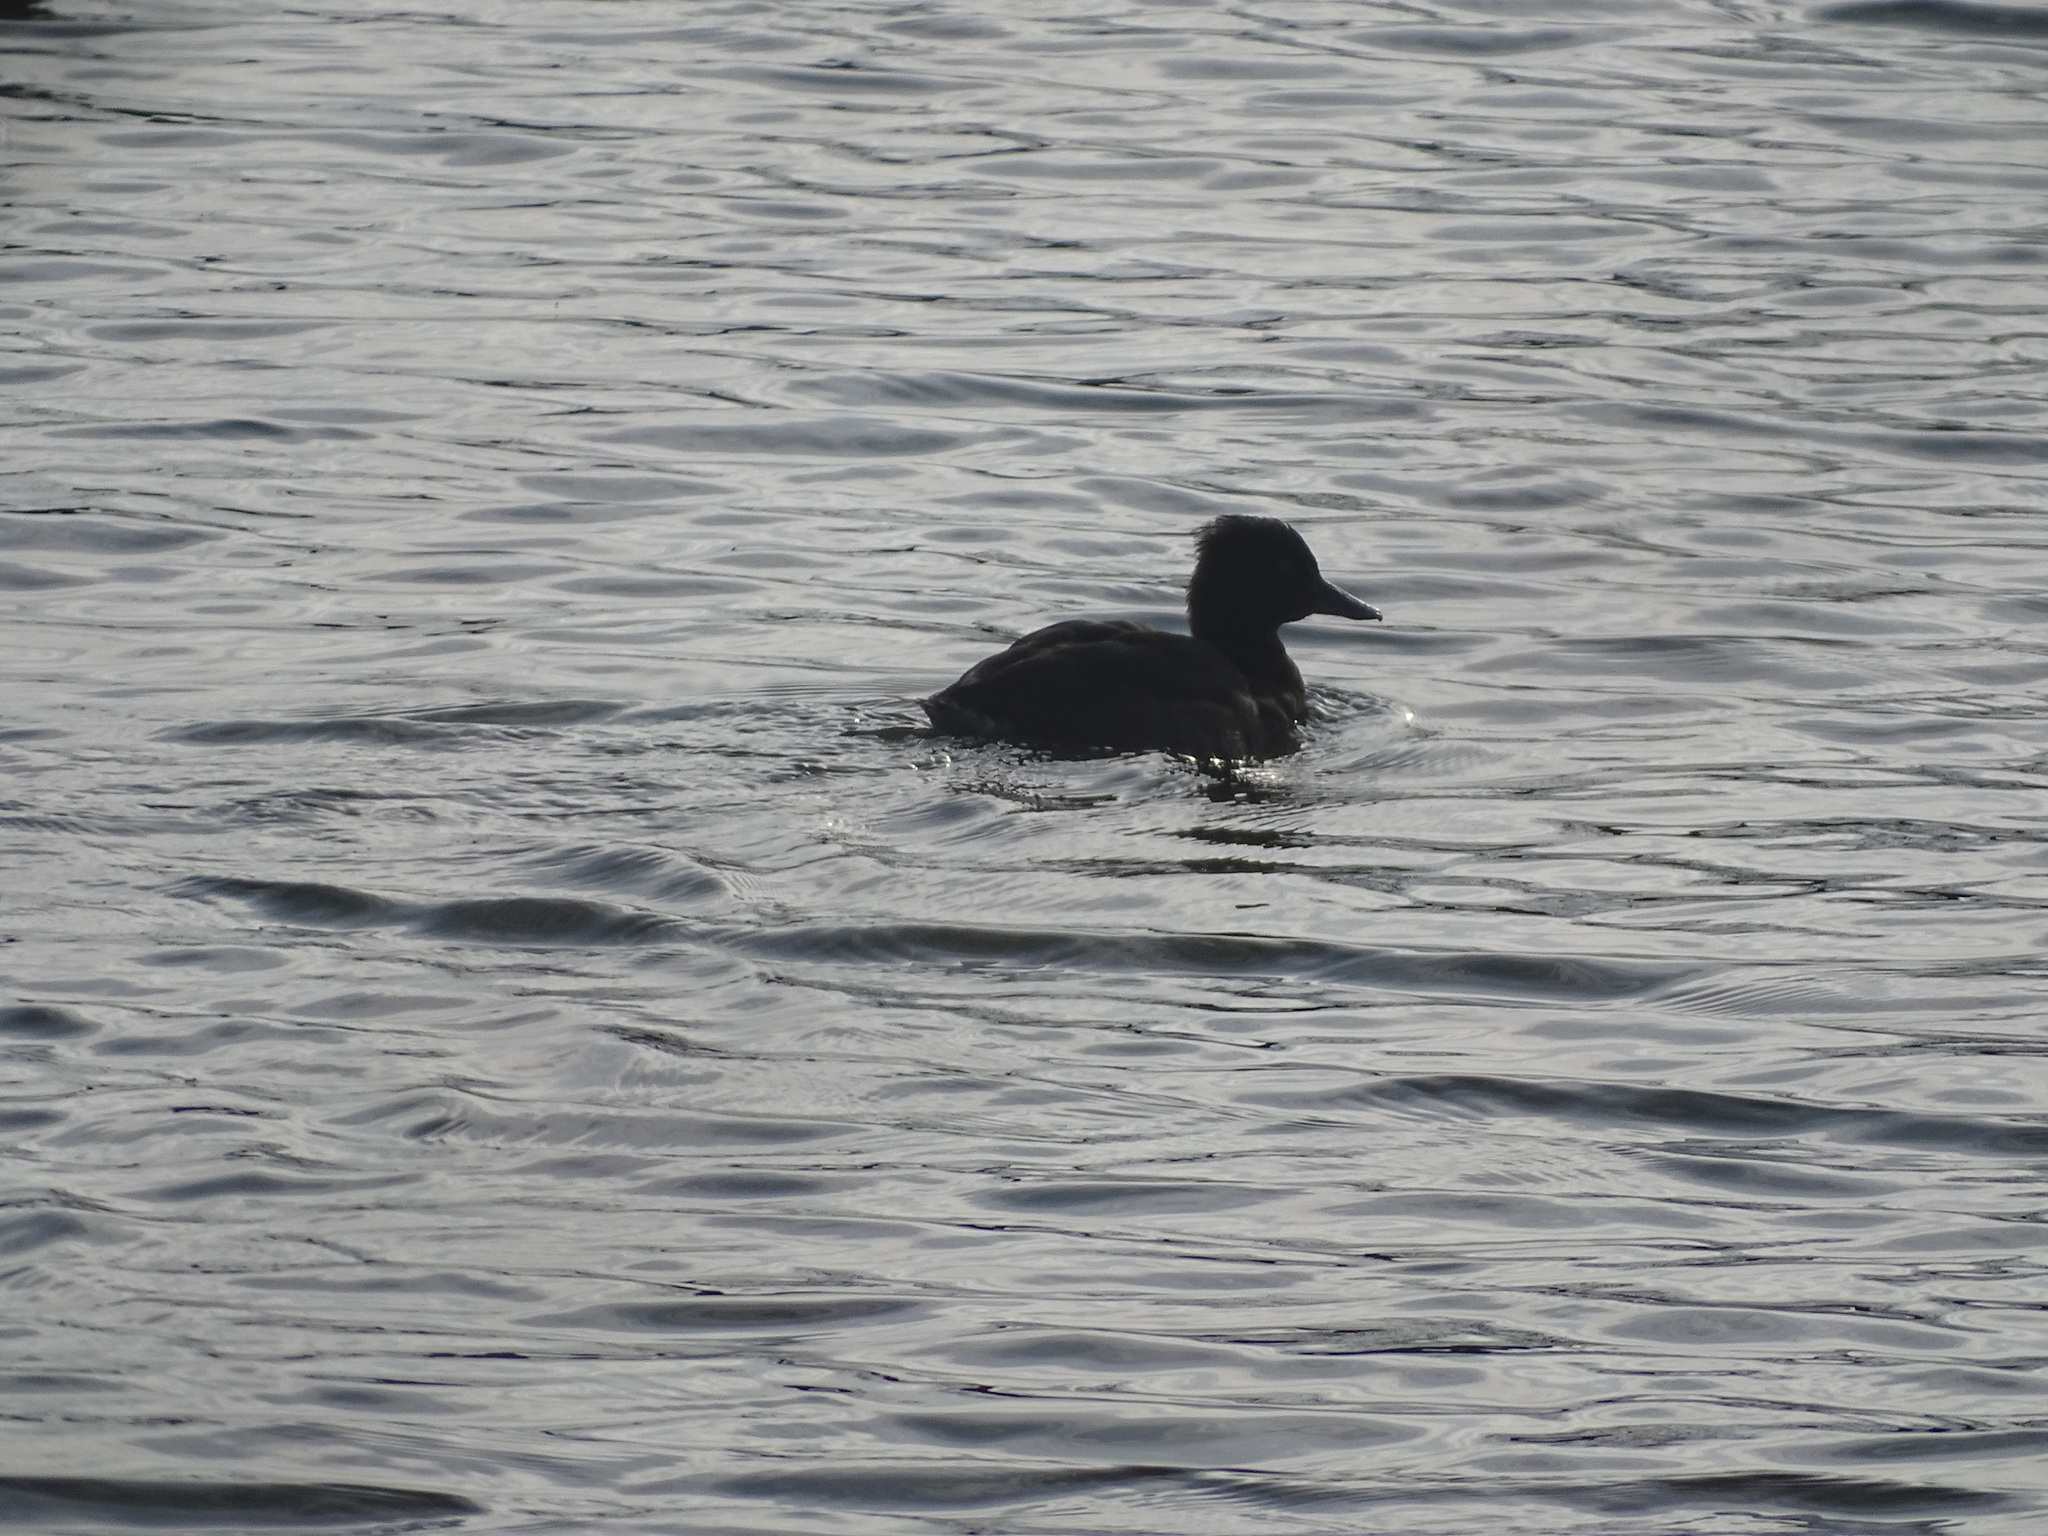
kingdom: Animalia
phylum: Chordata
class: Aves
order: Anseriformes
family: Anatidae
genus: Aythya
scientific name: Aythya fuligula
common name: Tufted duck
